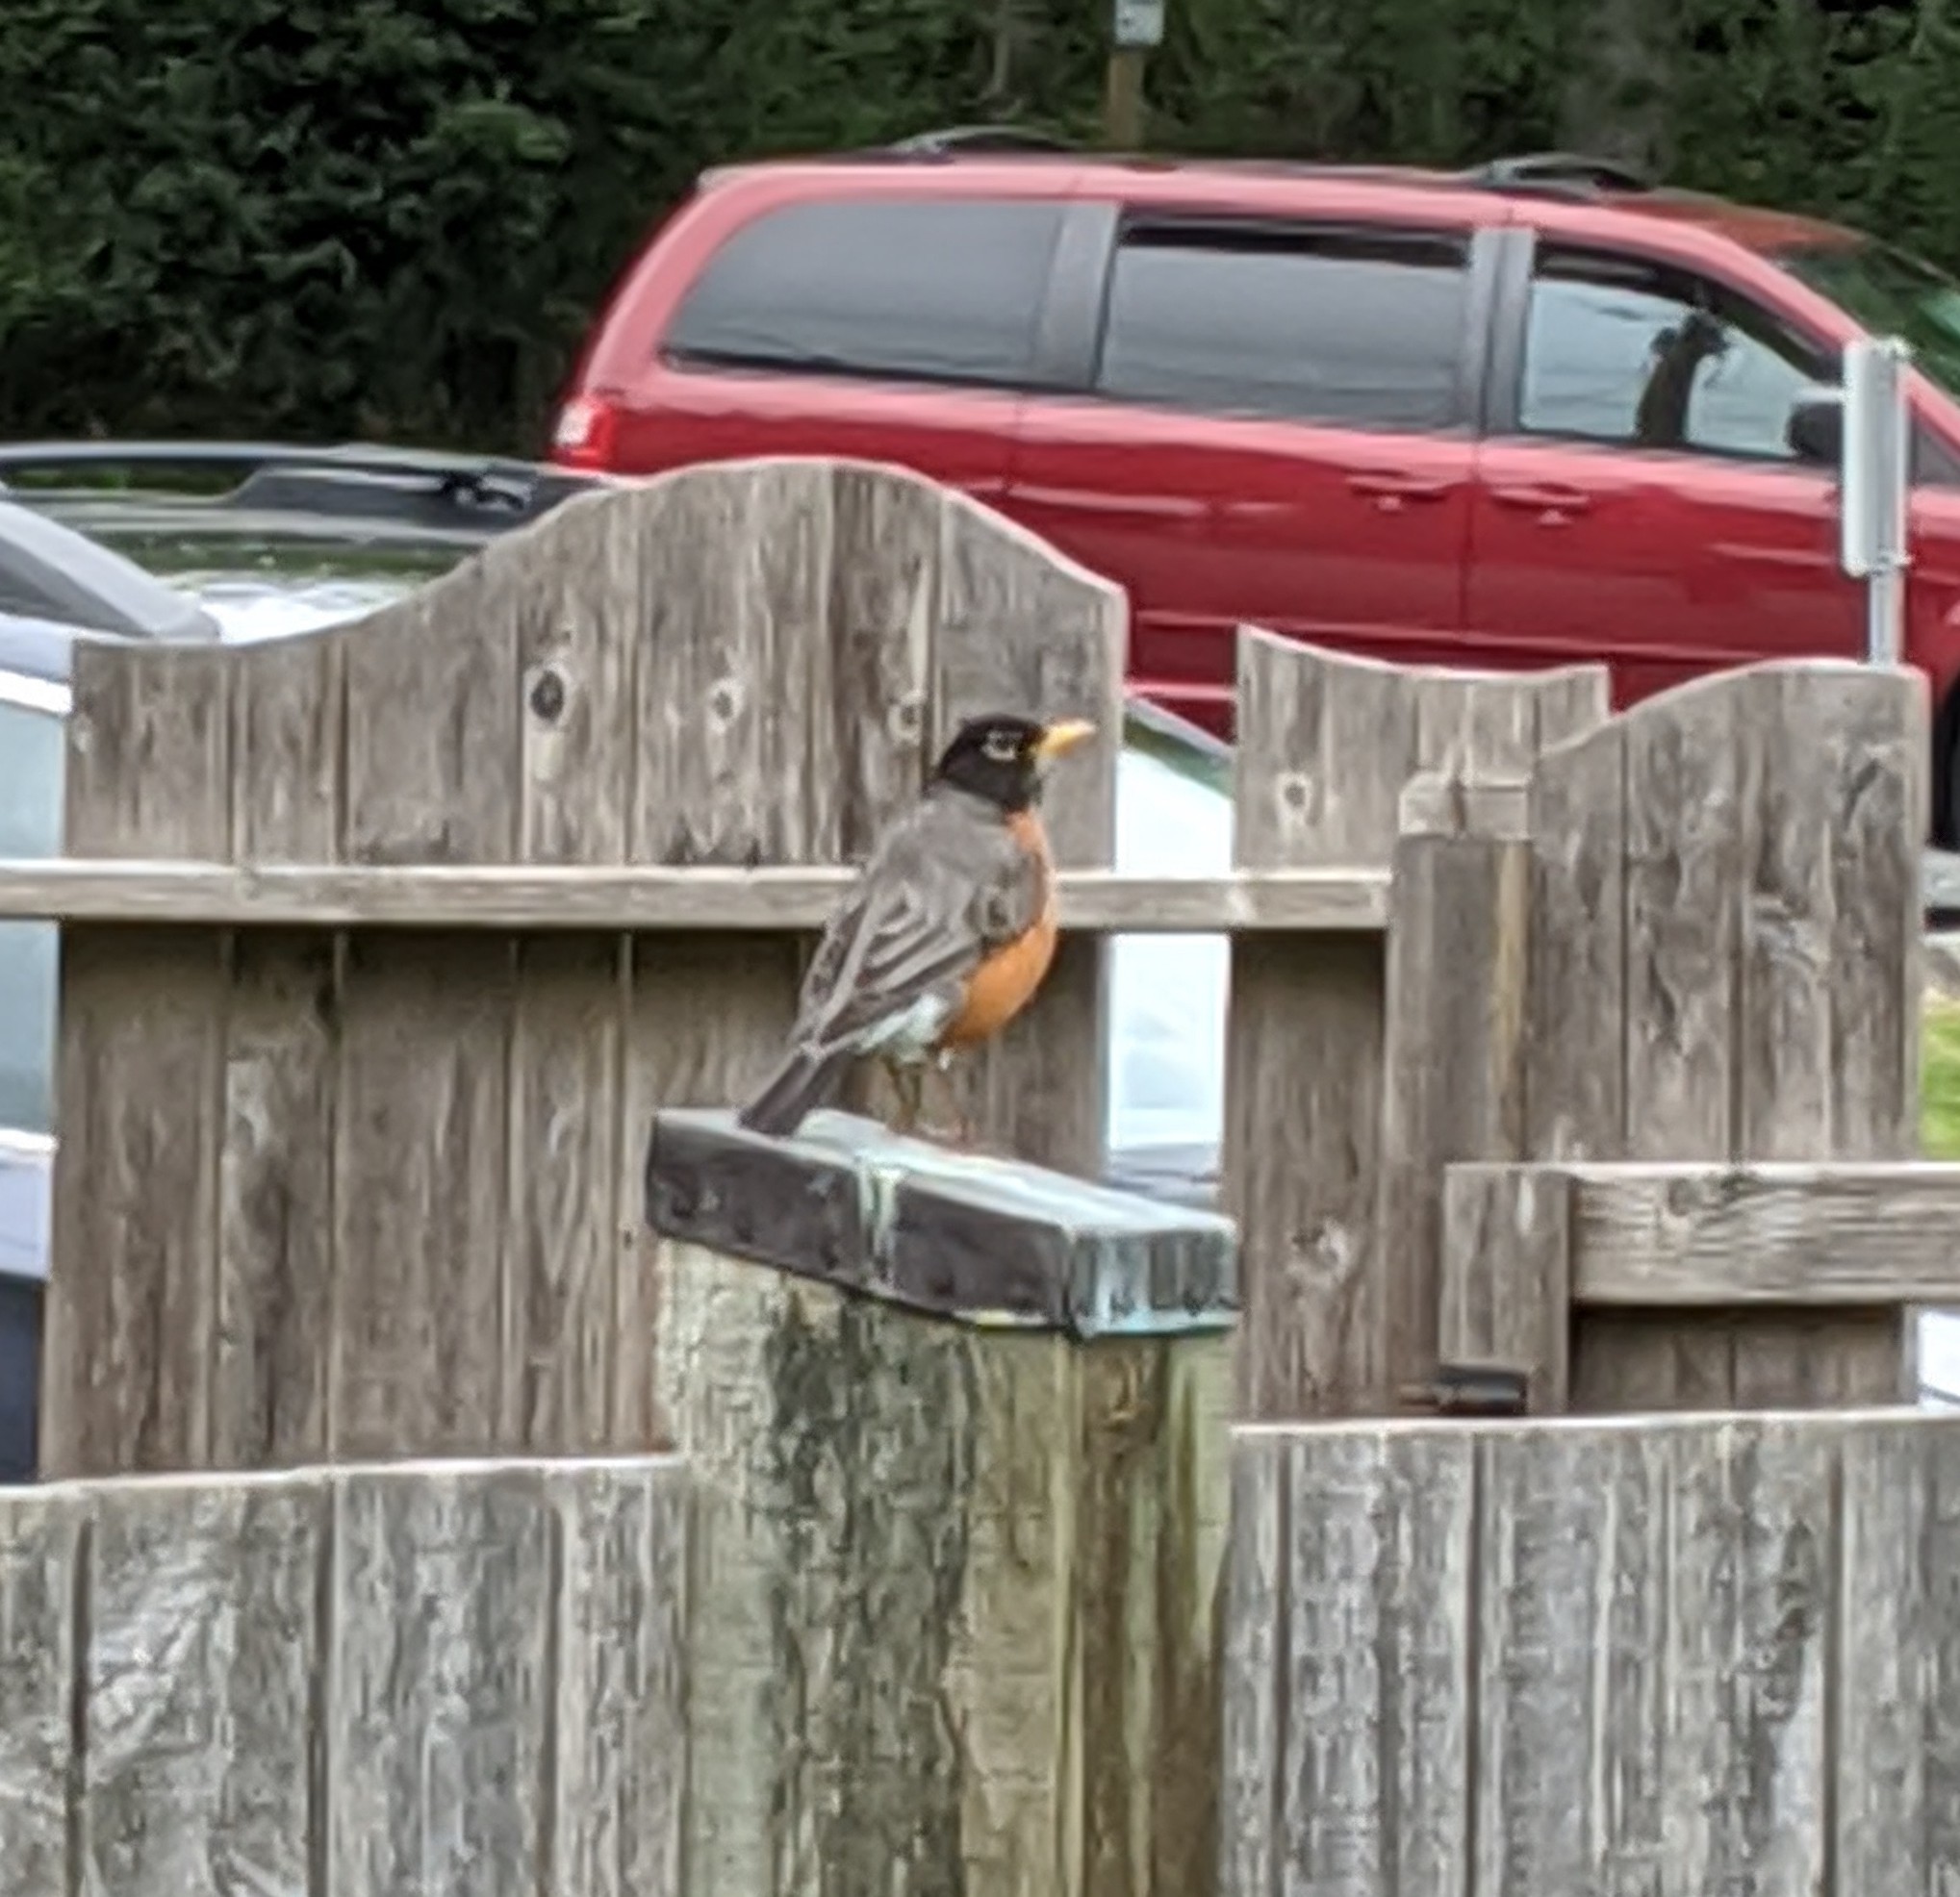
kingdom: Animalia
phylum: Chordata
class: Aves
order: Passeriformes
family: Turdidae
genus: Turdus
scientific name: Turdus migratorius
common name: American robin
